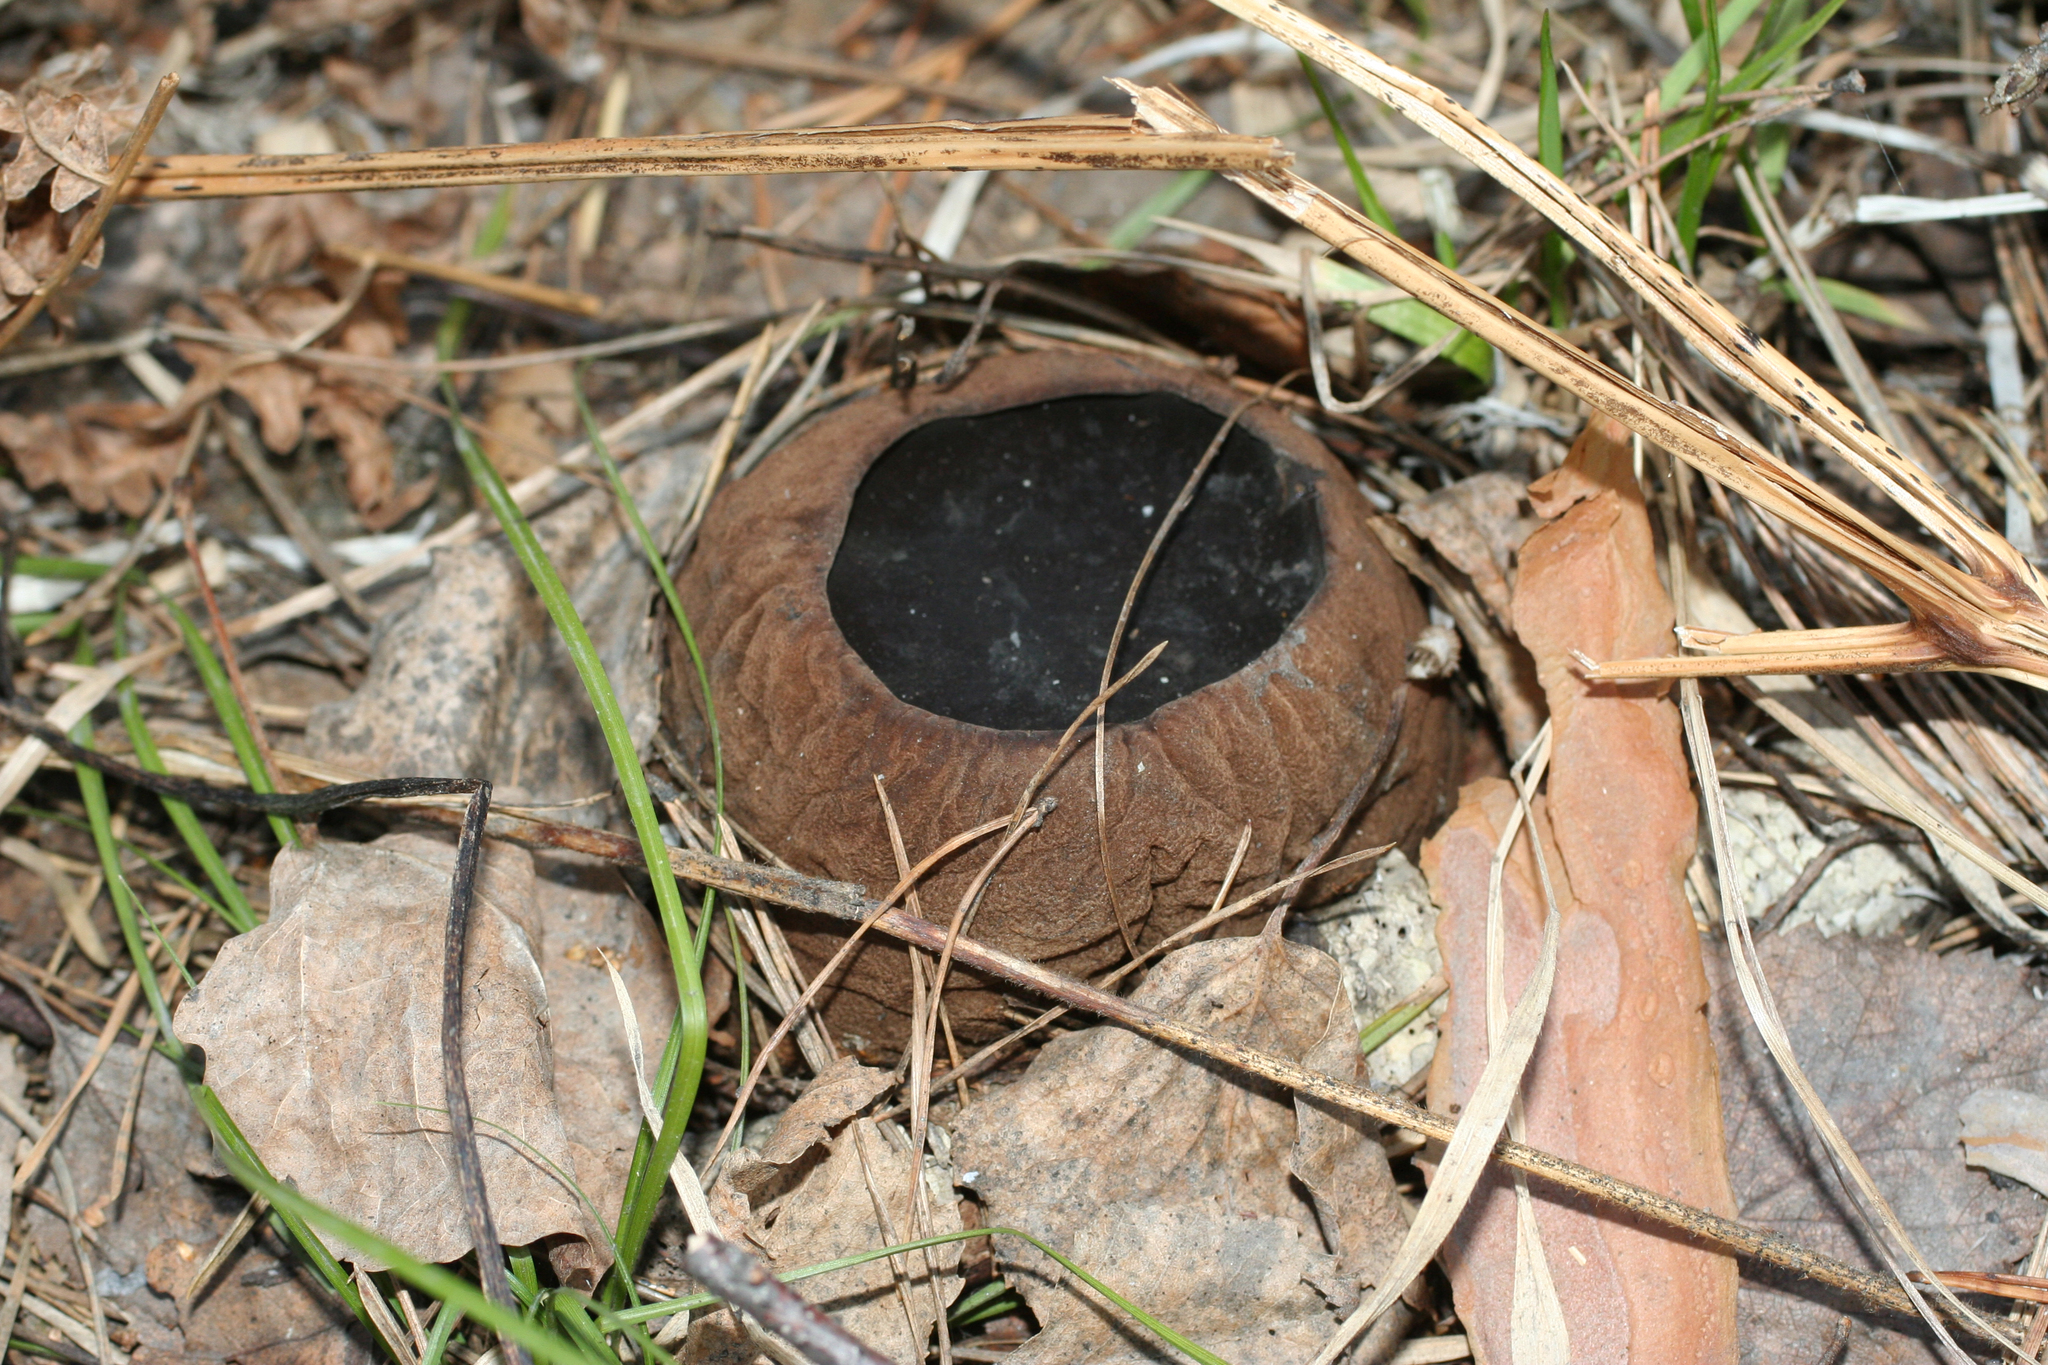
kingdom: Fungi
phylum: Ascomycota
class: Pezizomycetes
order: Pezizales
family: Sarcosomataceae
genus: Sarcosoma
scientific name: Sarcosoma globosum
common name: Charred-pancake cup
